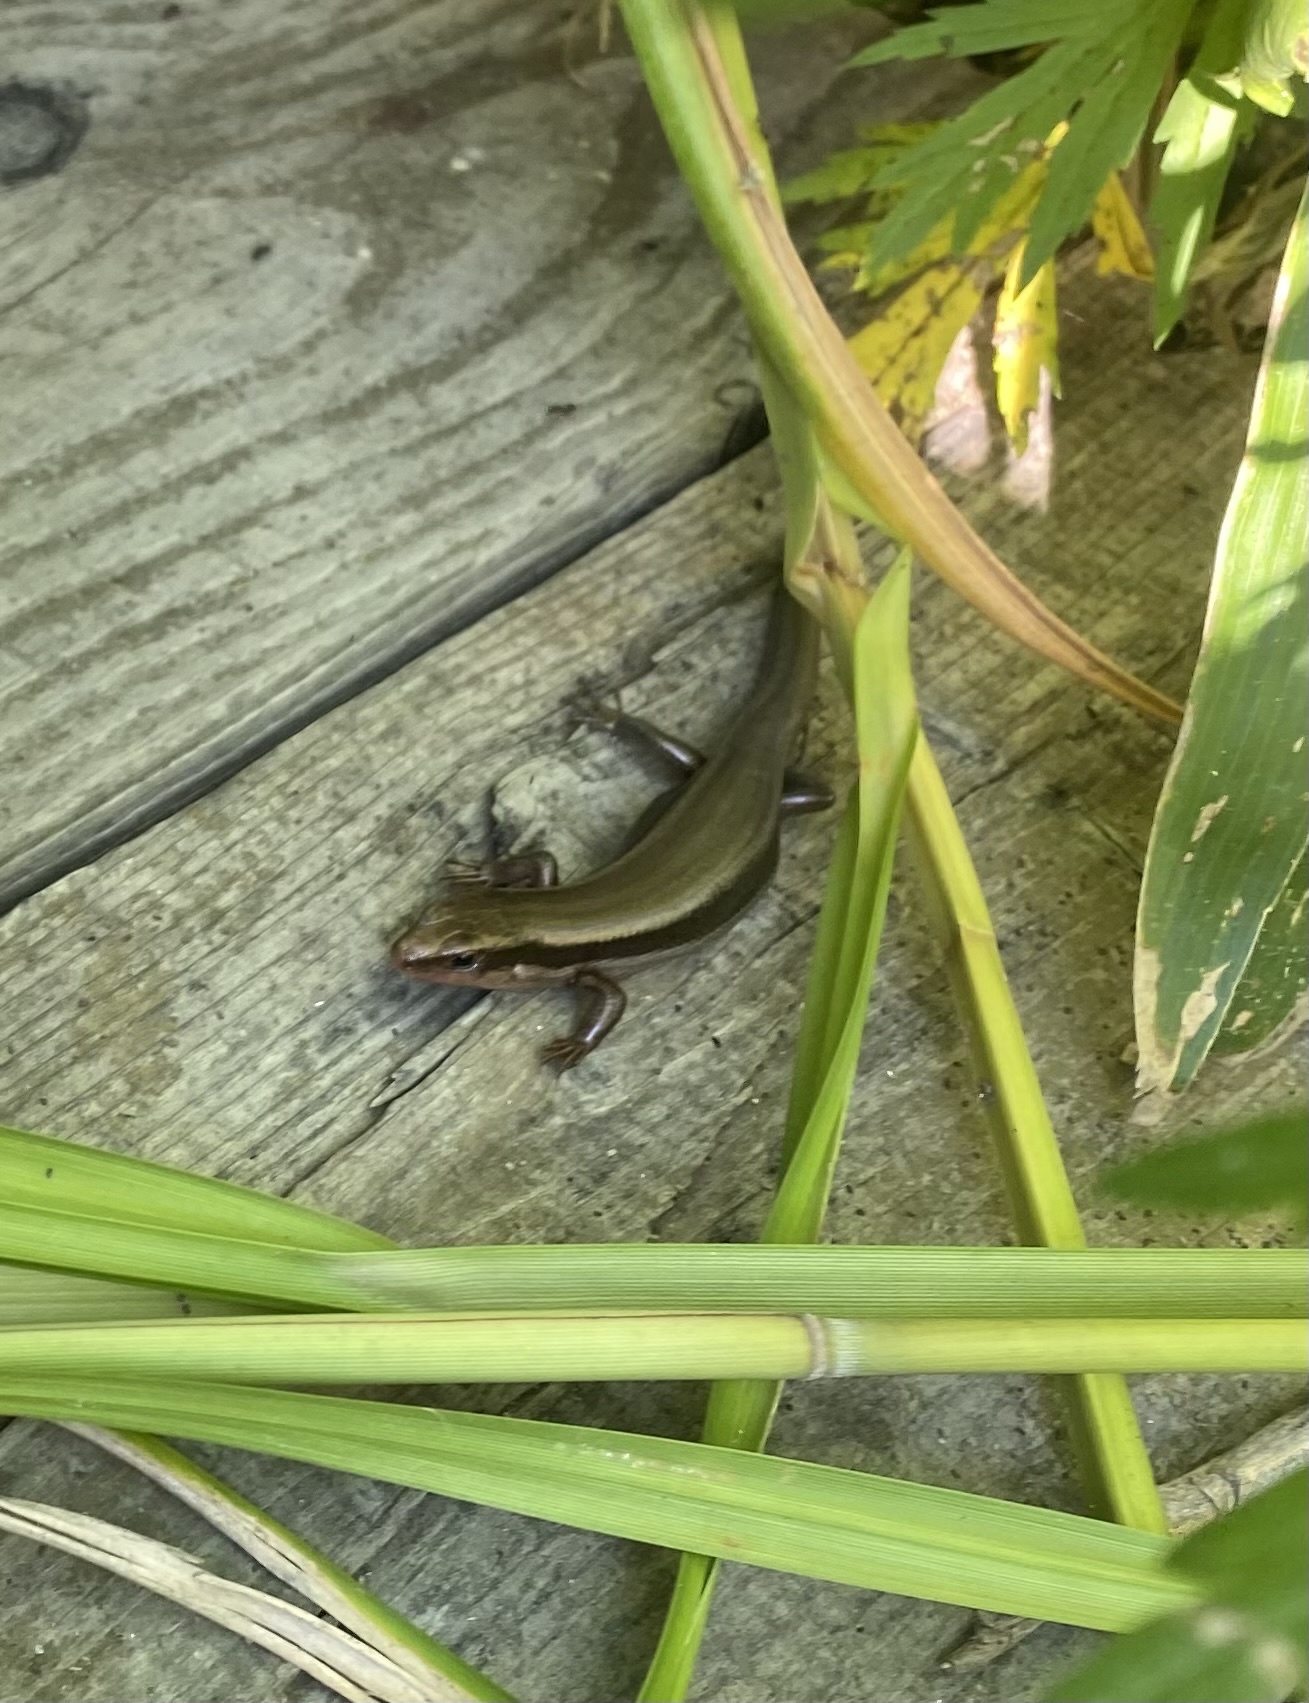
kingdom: Animalia
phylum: Chordata
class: Squamata
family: Scincidae
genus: Plestiodon
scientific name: Plestiodon finitimus
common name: Far eastern skink
